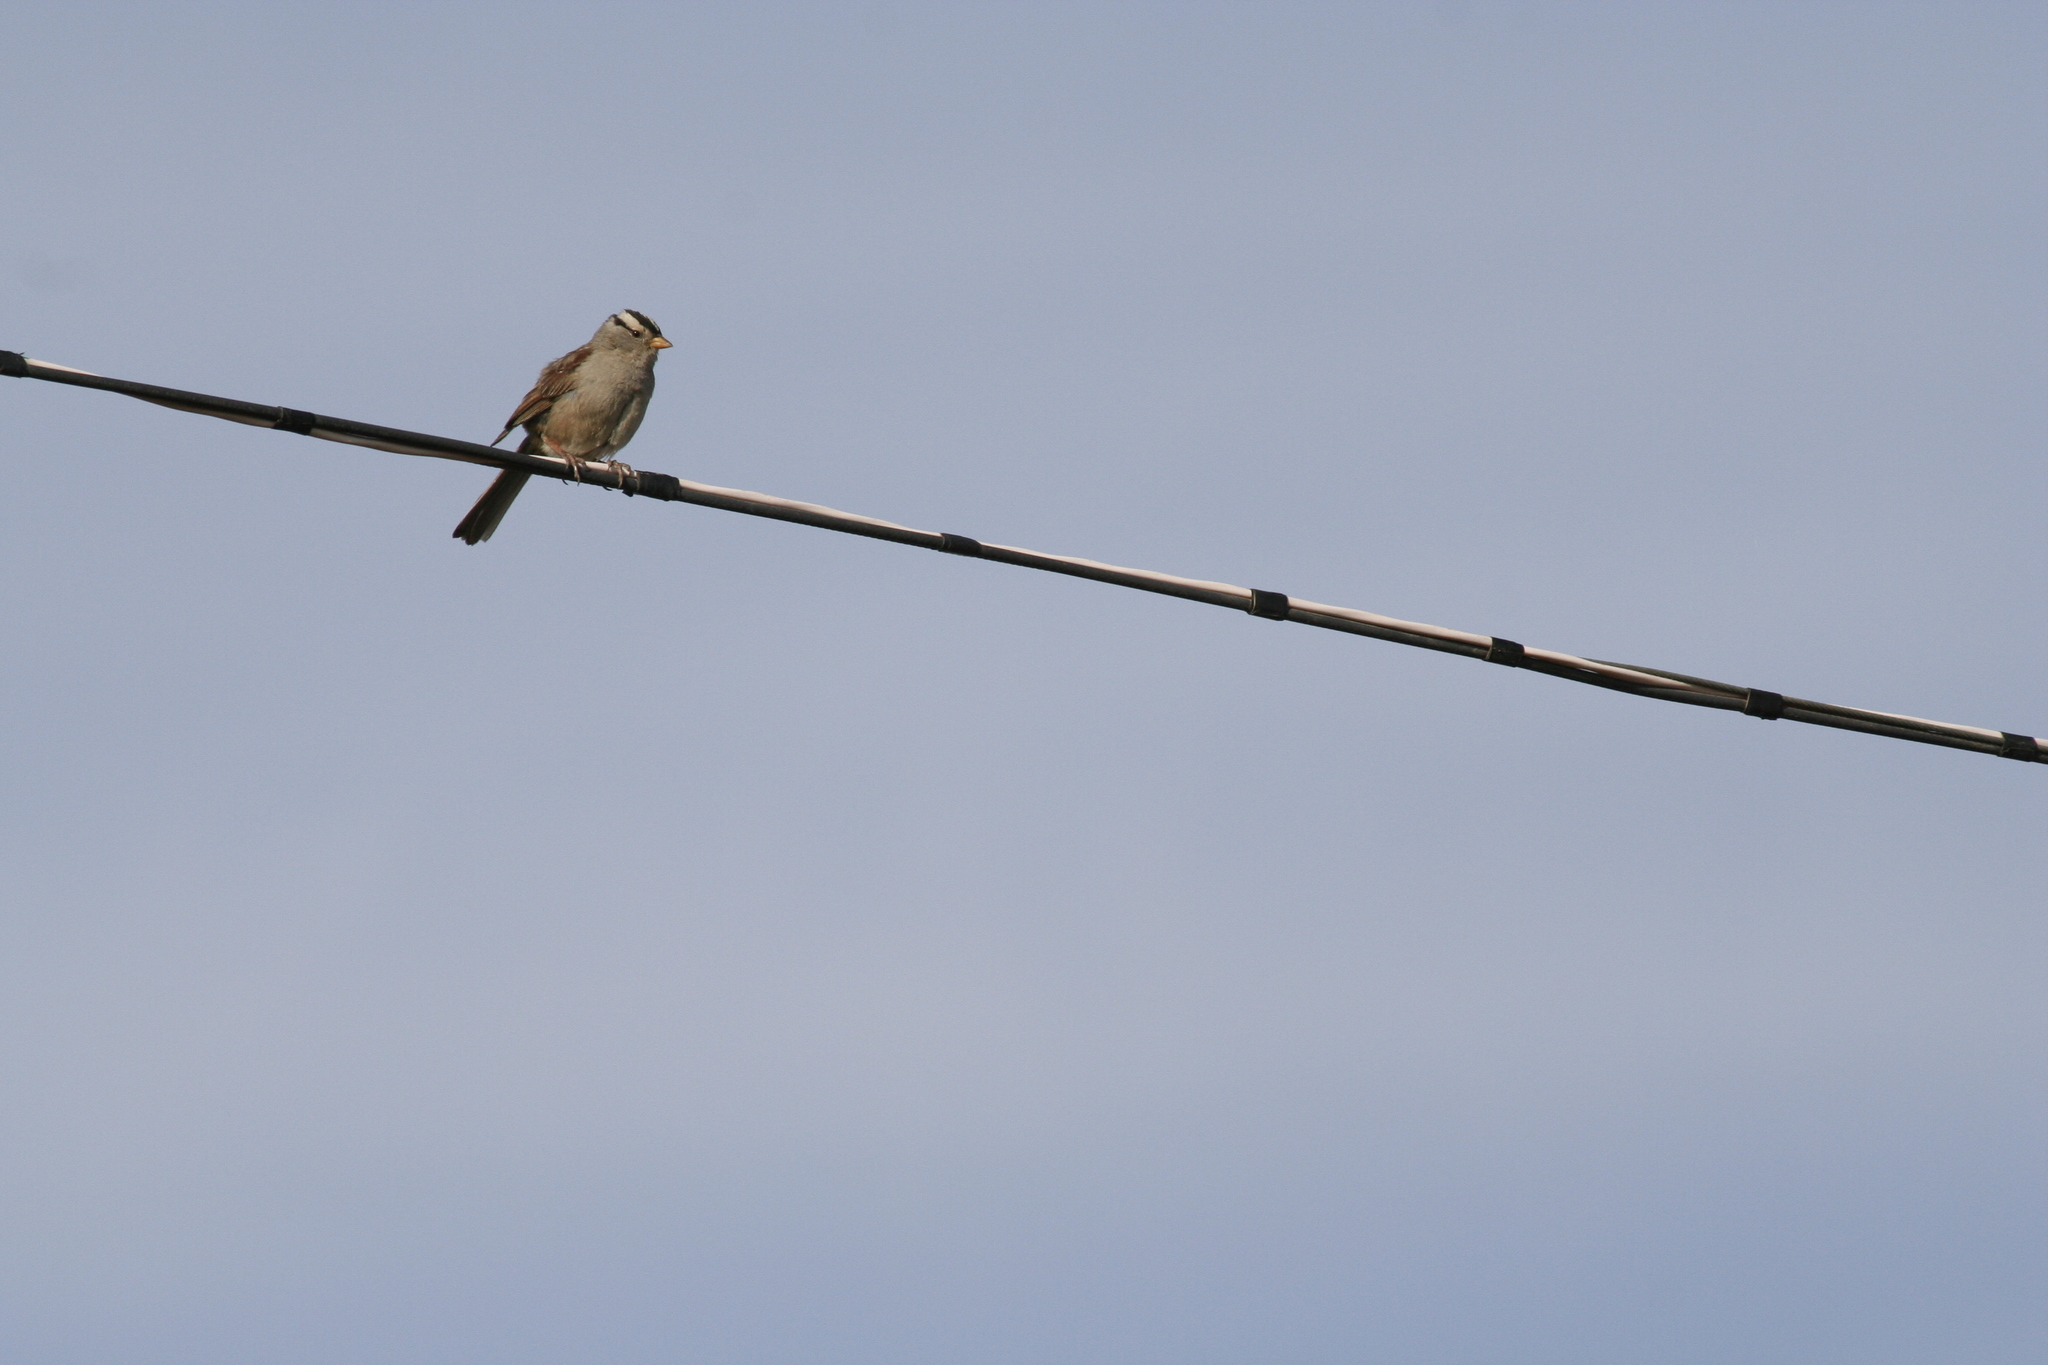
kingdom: Animalia
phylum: Chordata
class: Aves
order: Passeriformes
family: Passerellidae
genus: Zonotrichia
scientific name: Zonotrichia leucophrys
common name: White-crowned sparrow
